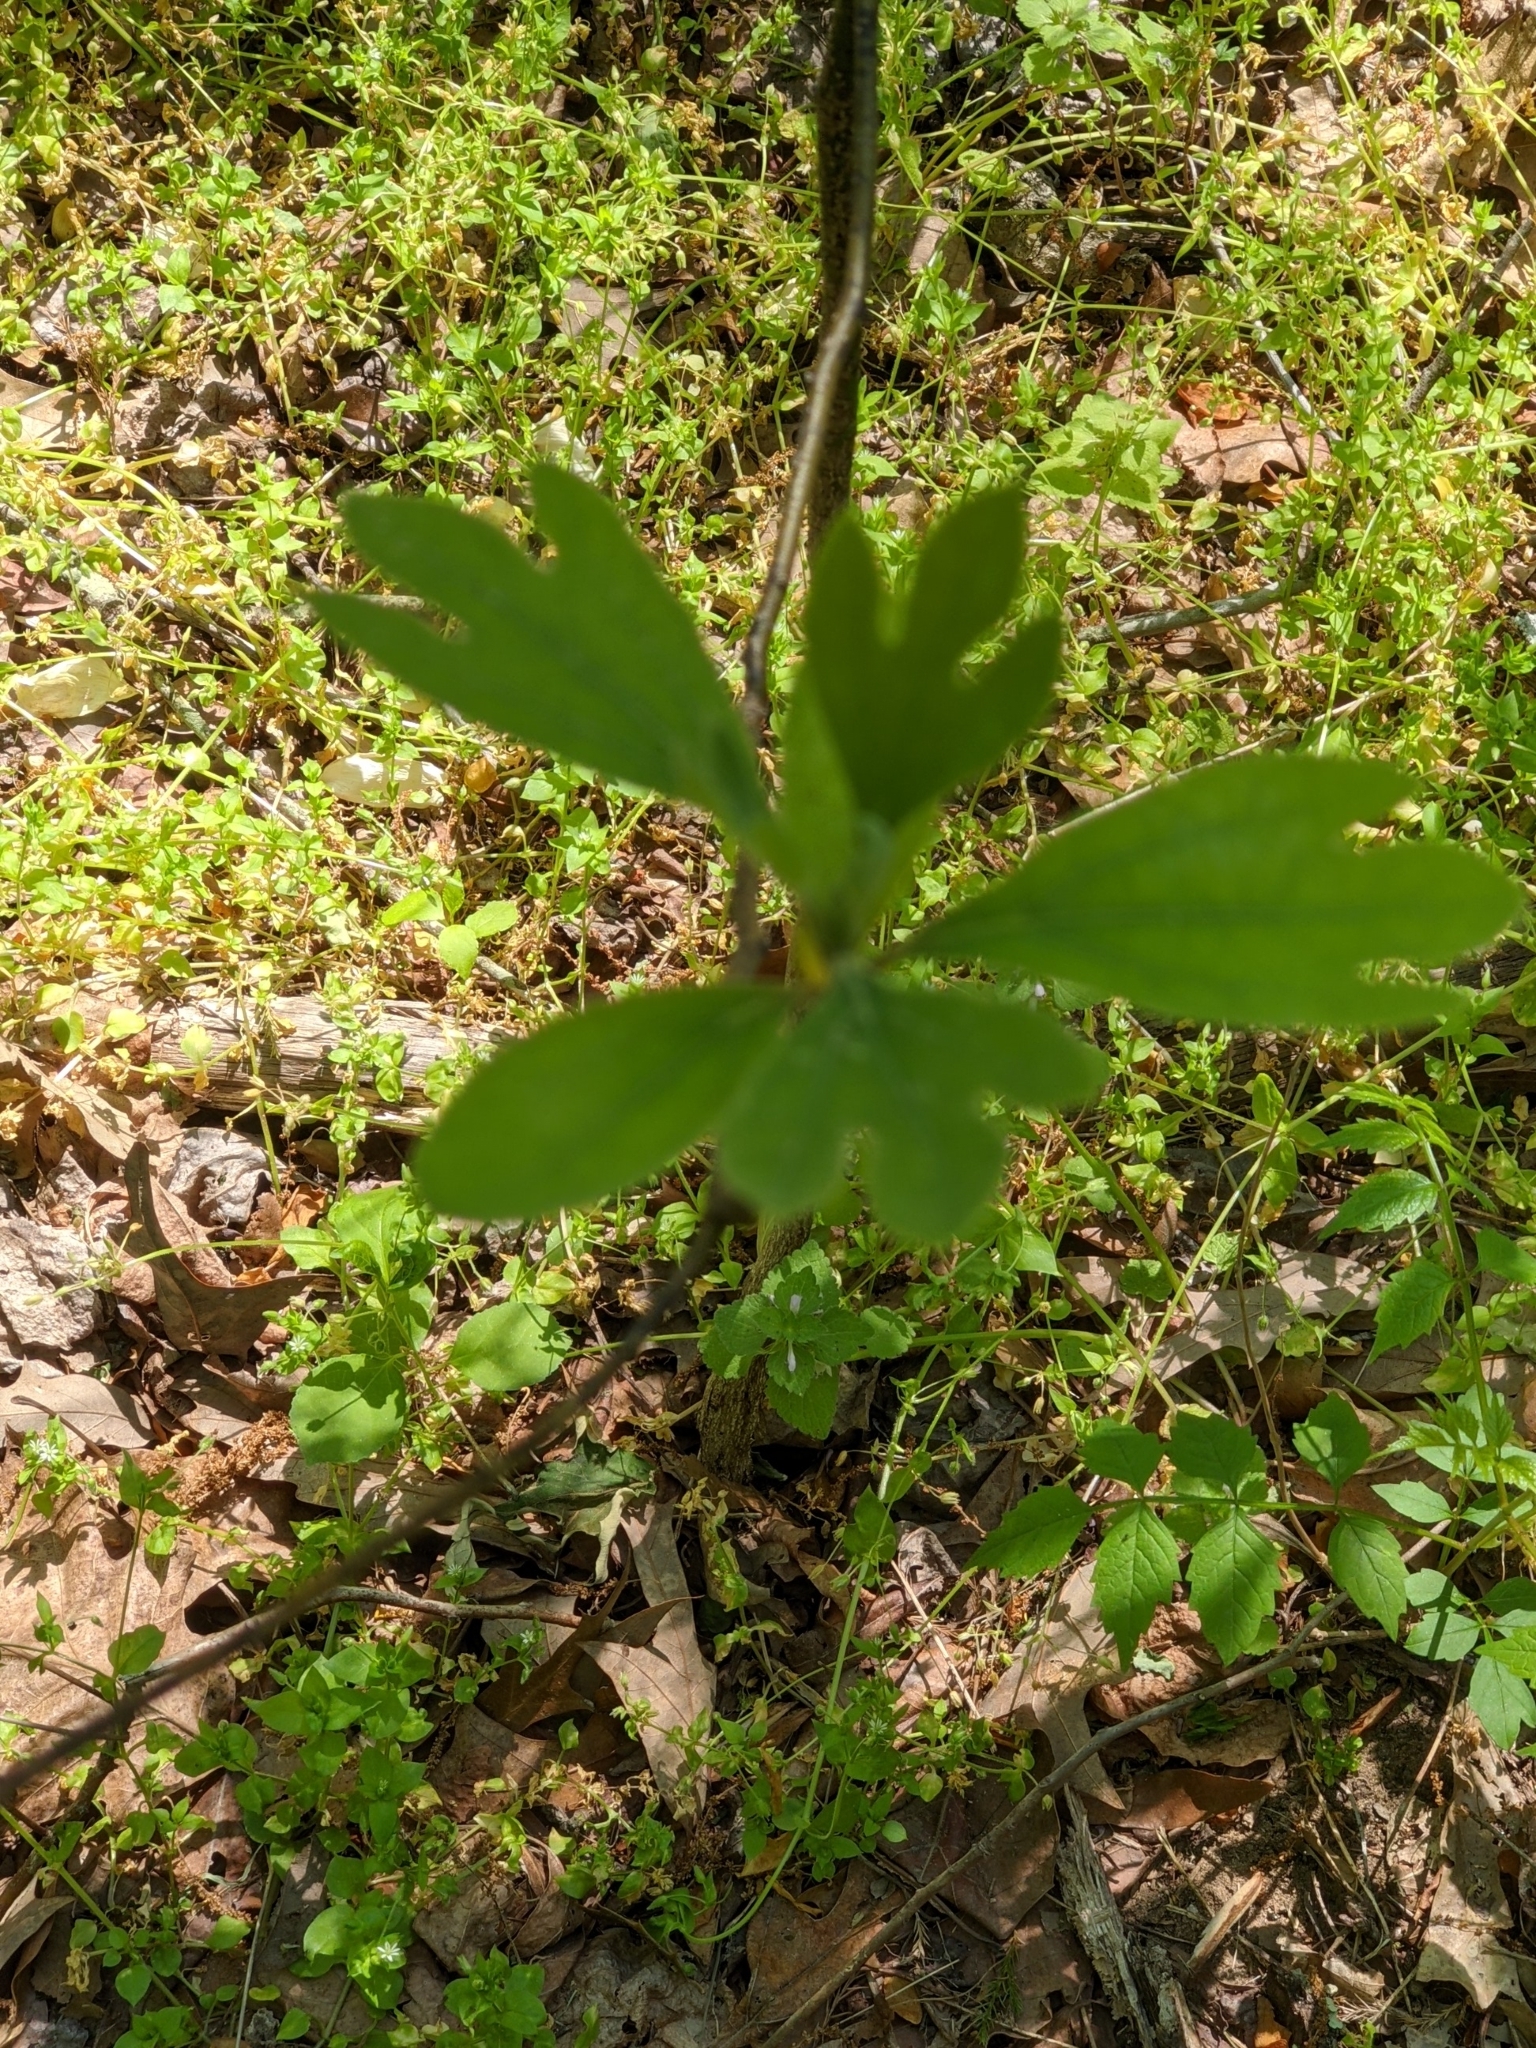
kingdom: Plantae
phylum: Tracheophyta
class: Magnoliopsida
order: Laurales
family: Lauraceae
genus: Sassafras
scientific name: Sassafras albidum
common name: Sassafras
